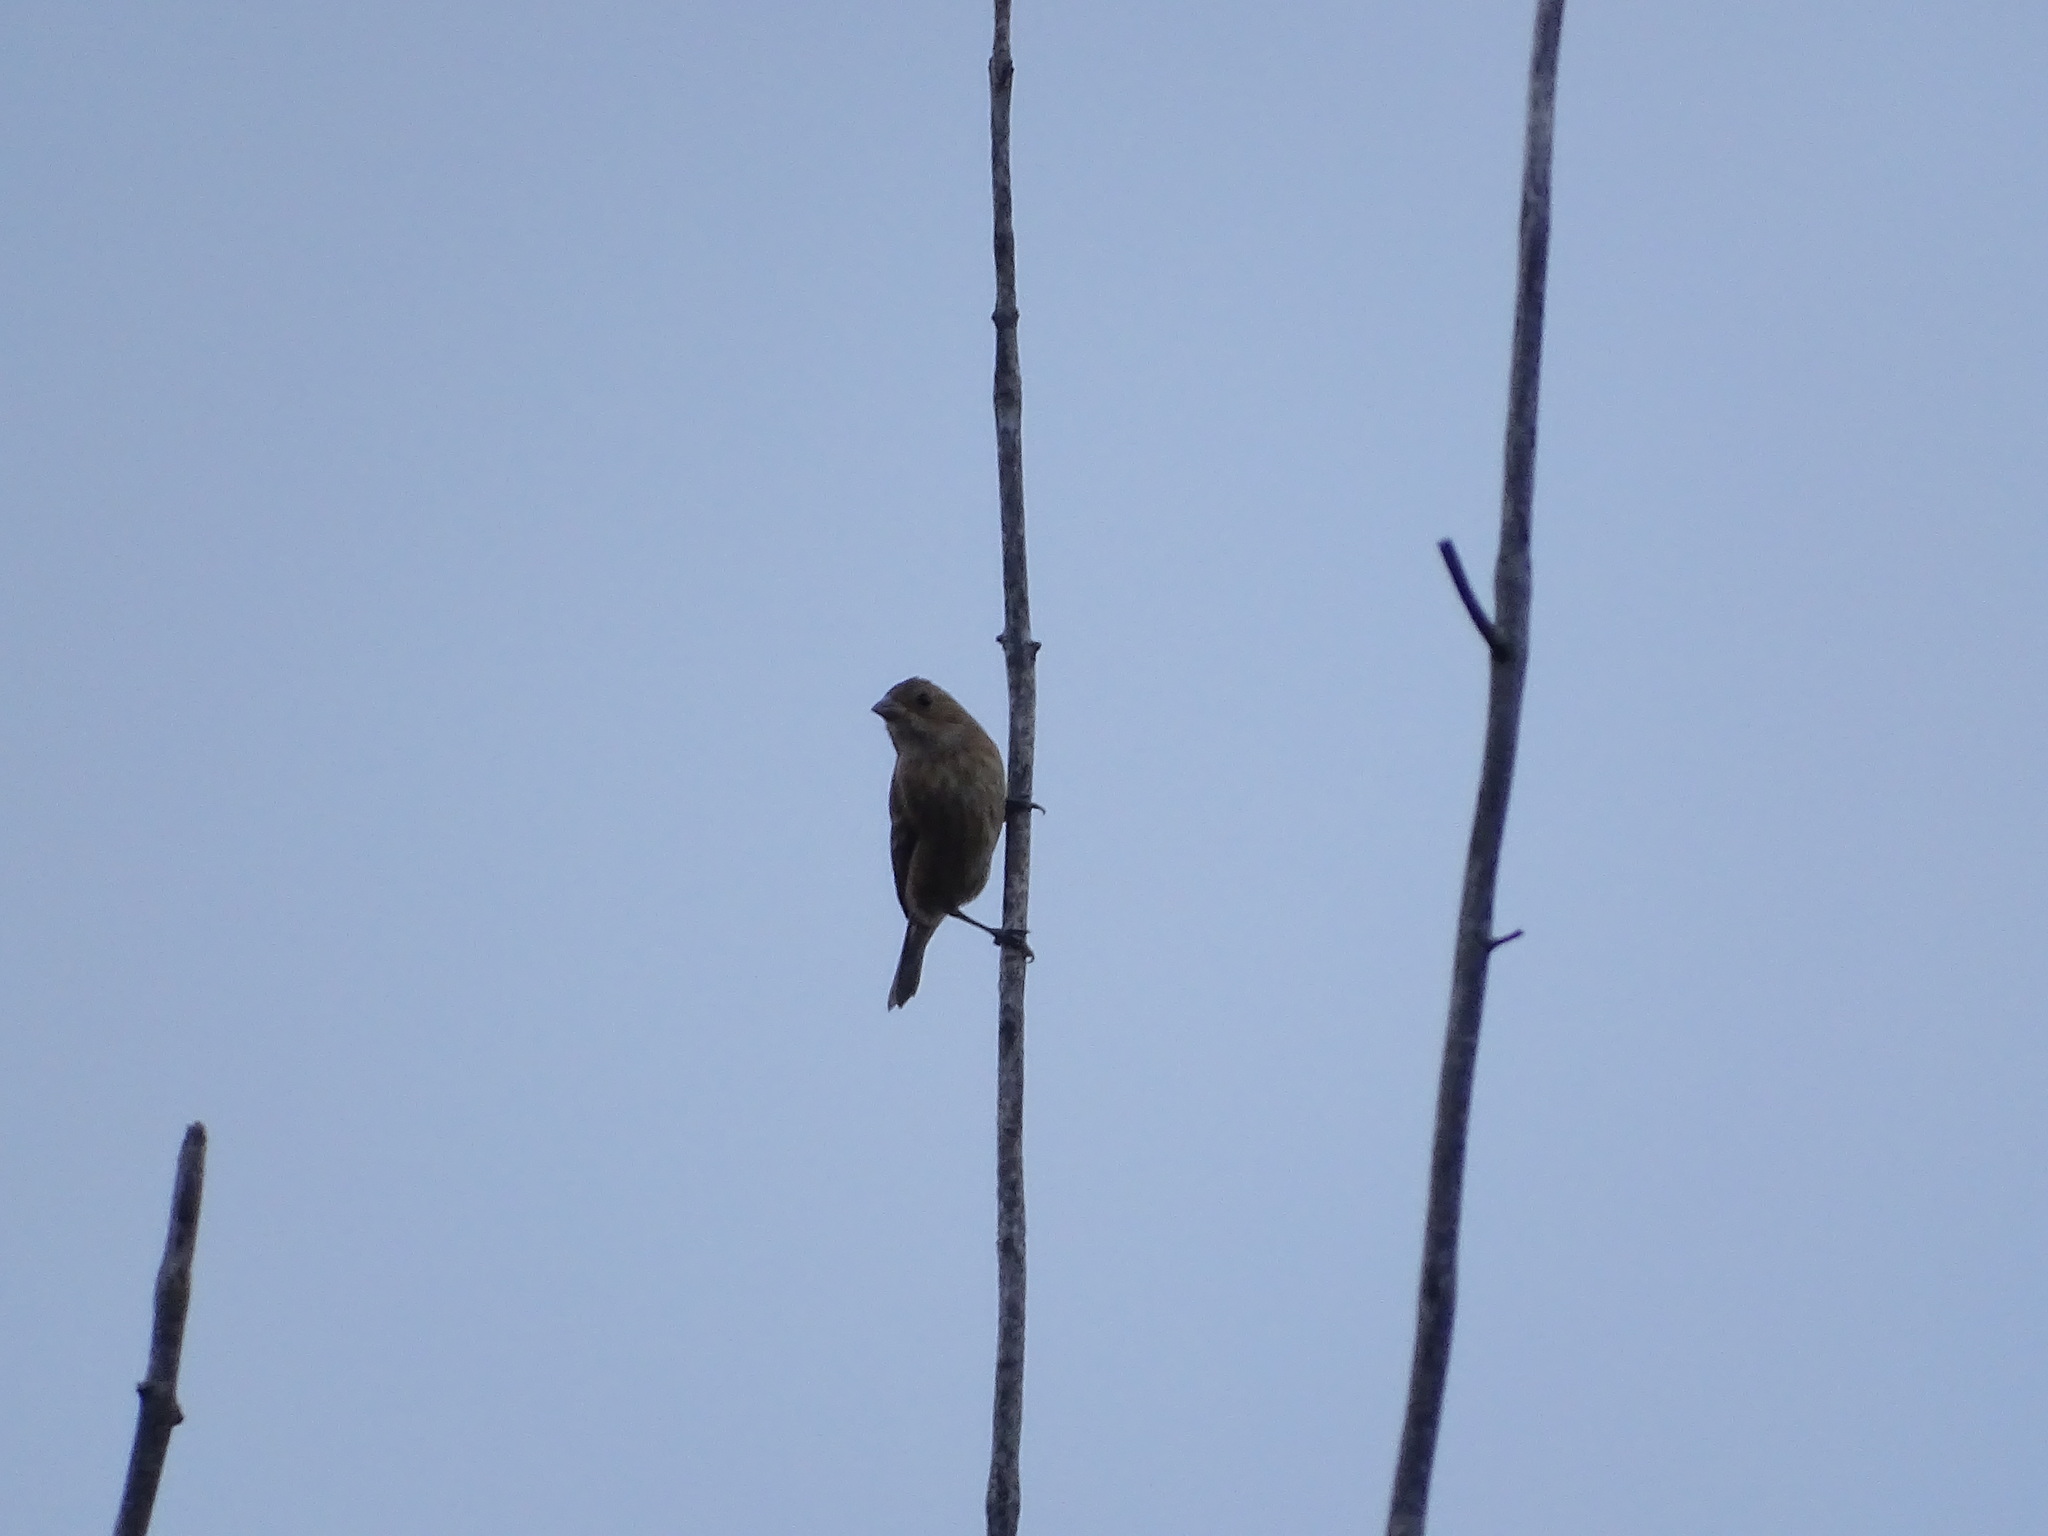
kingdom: Animalia
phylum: Chordata
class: Aves
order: Passeriformes
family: Cardinalidae
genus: Passerina
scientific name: Passerina cyanea
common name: Indigo bunting
